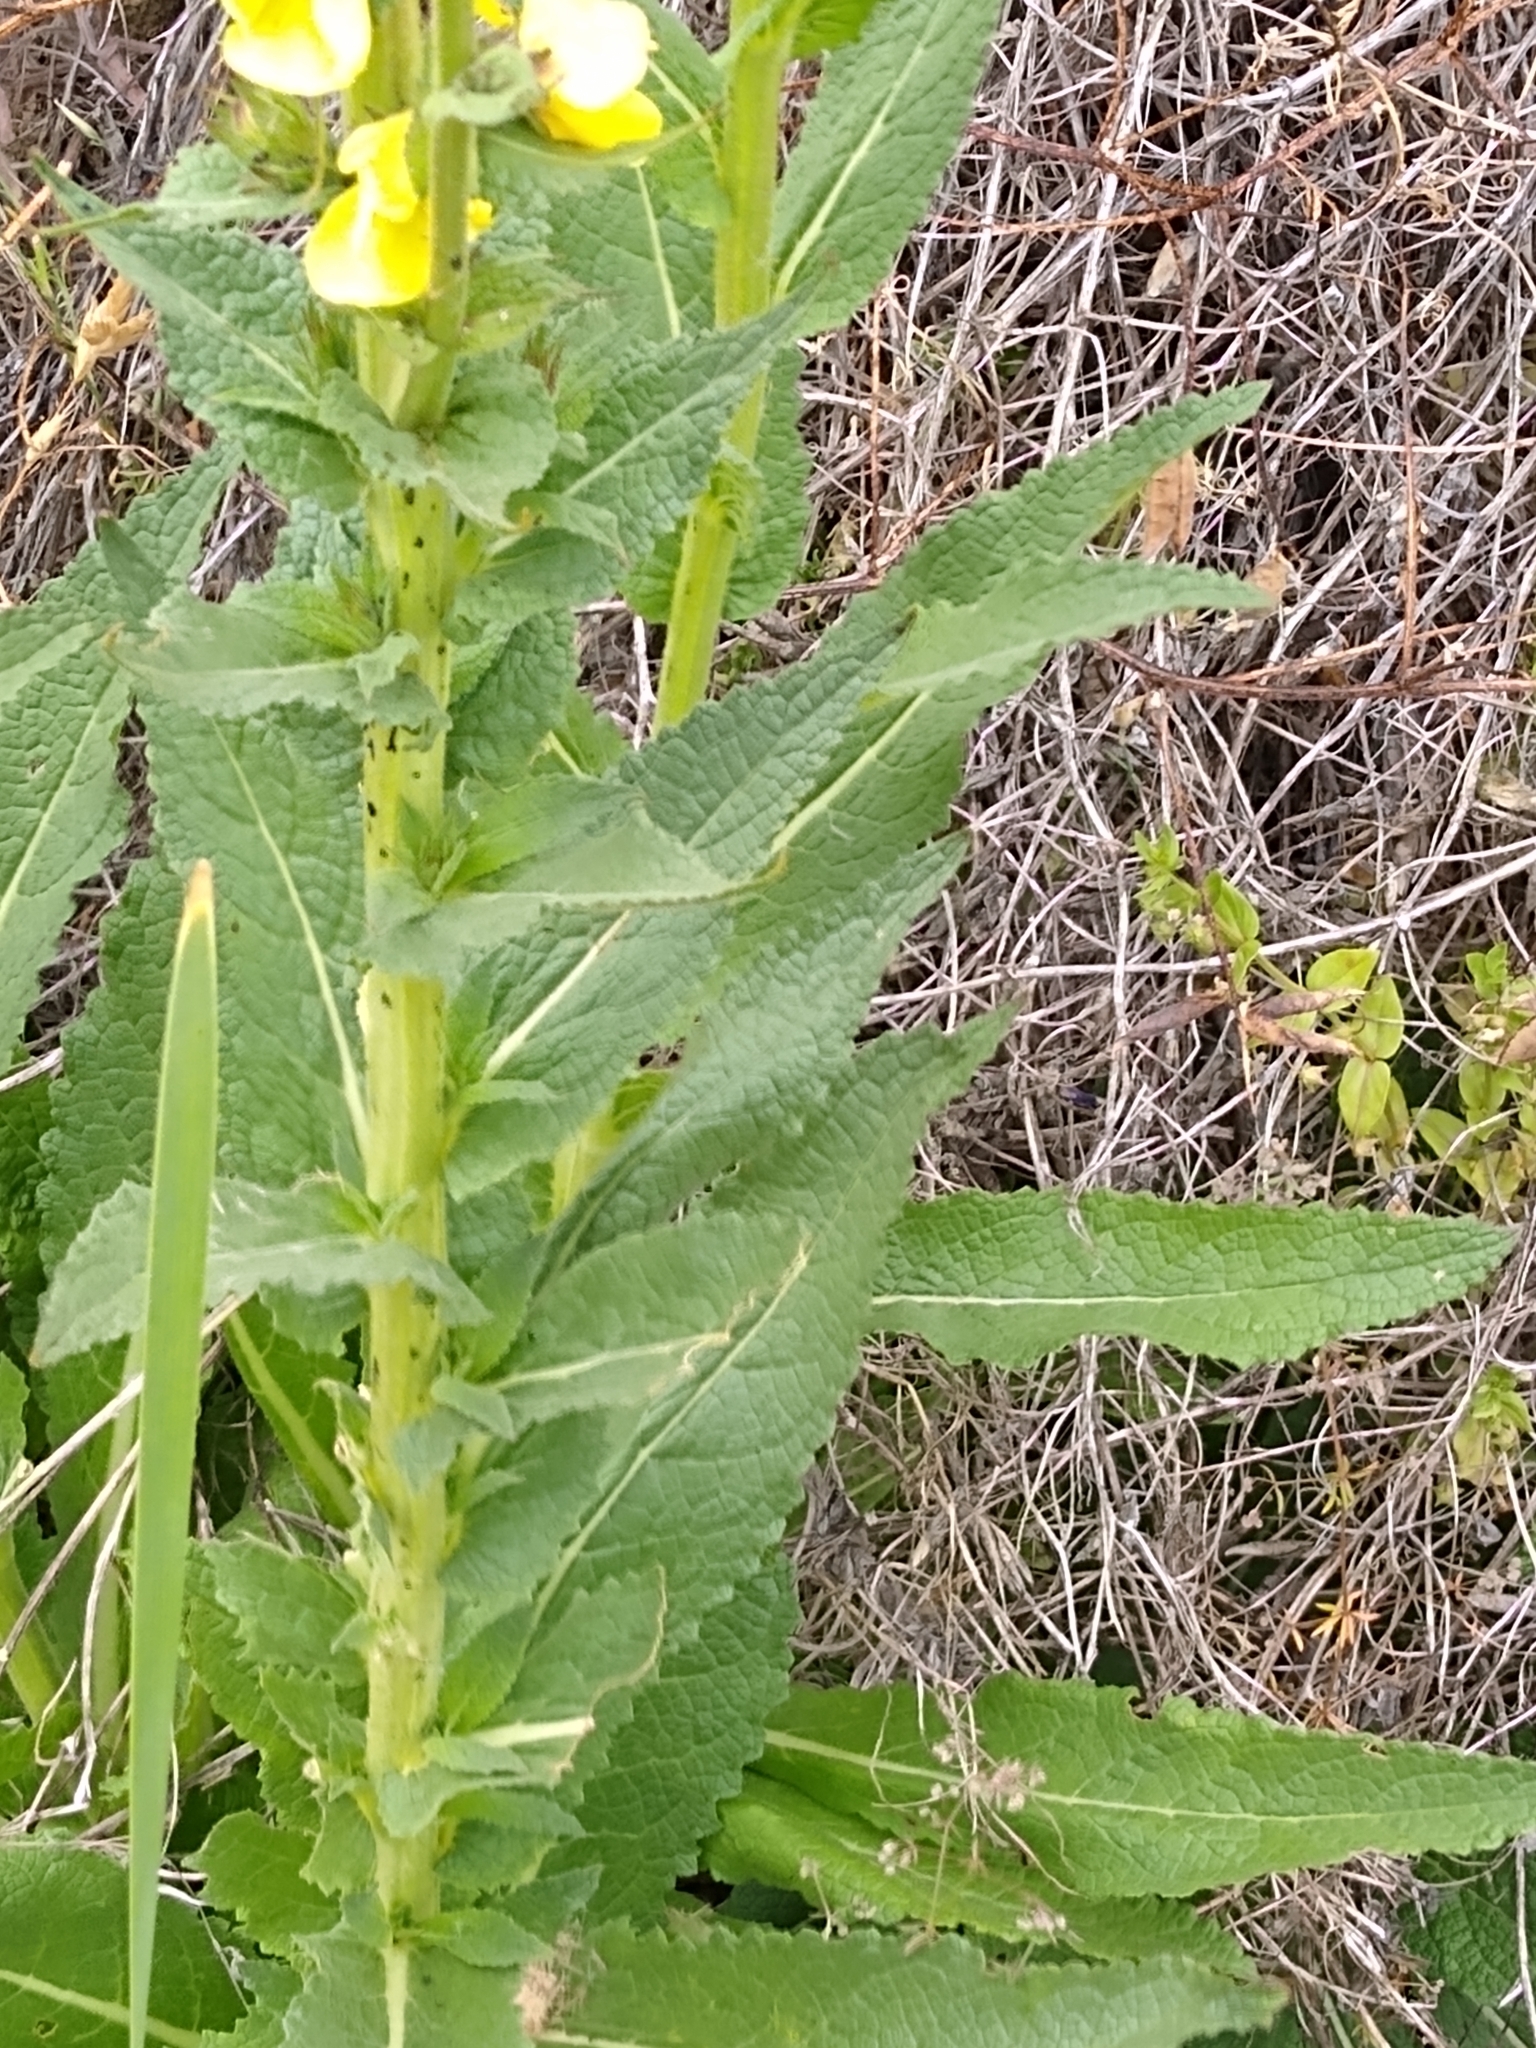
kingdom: Plantae
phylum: Tracheophyta
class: Magnoliopsida
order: Lamiales
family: Scrophulariaceae
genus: Verbascum
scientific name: Verbascum virgatum
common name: Twiggy mullein
